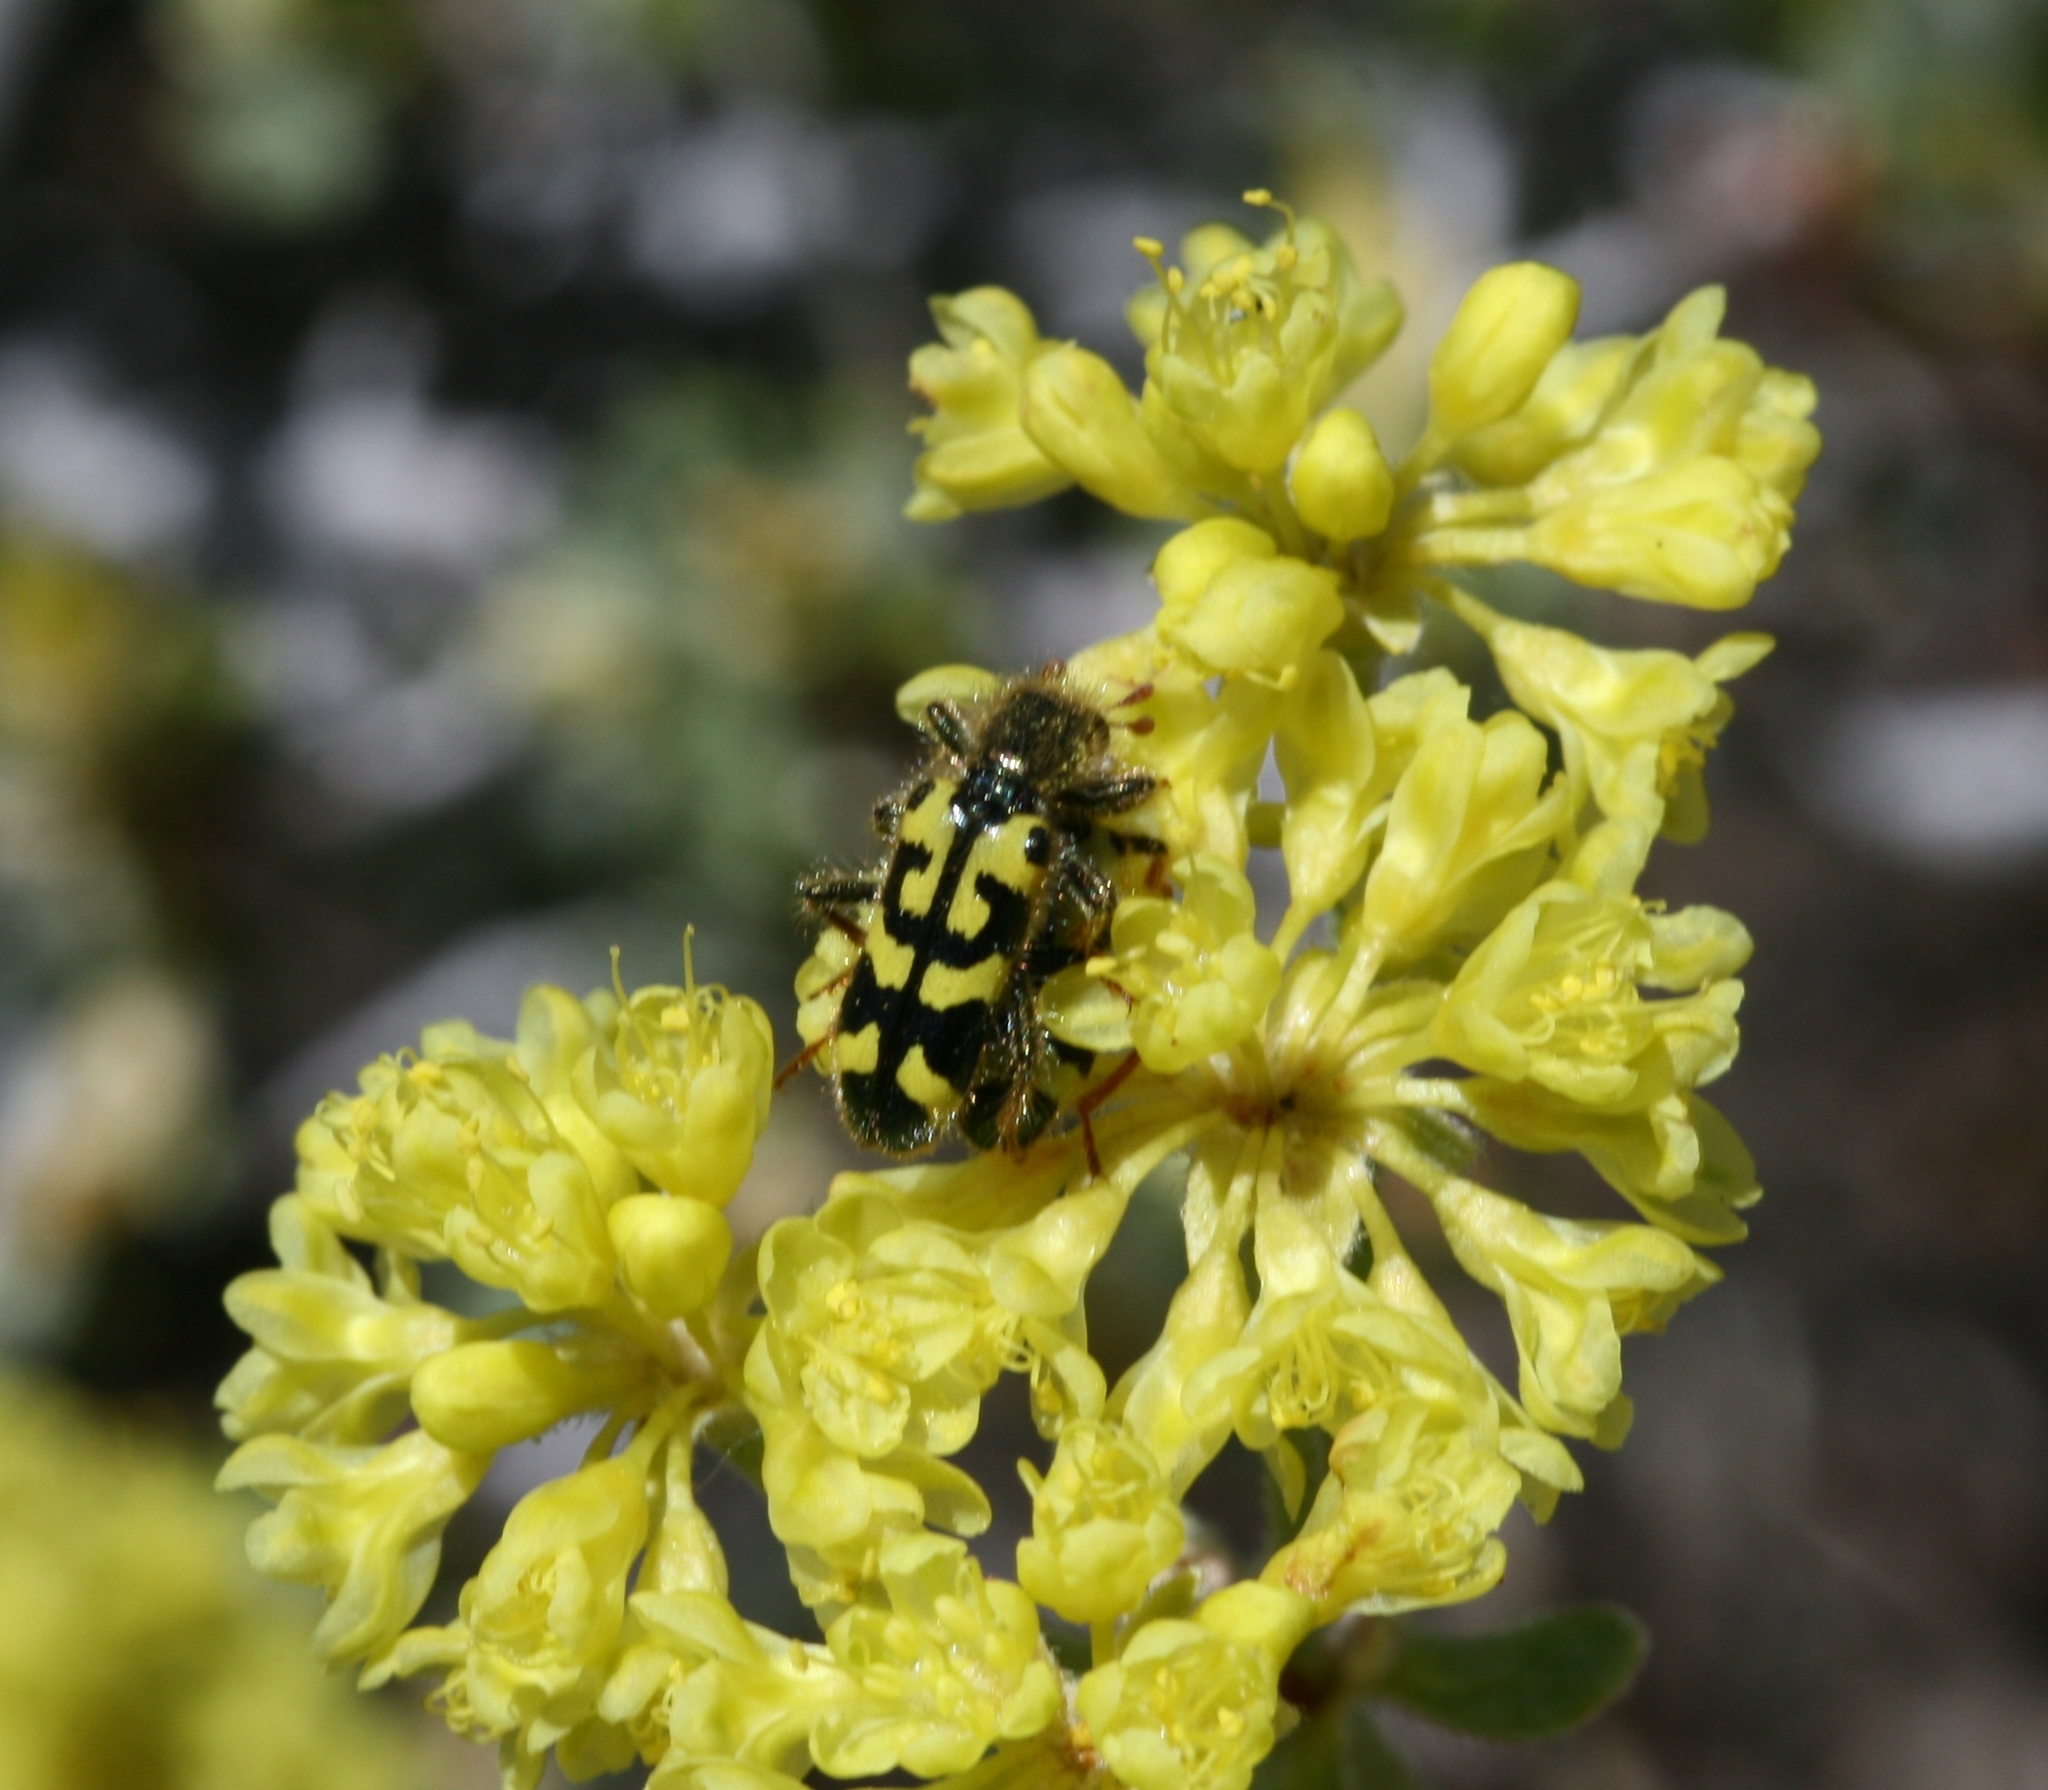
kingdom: Plantae
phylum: Tracheophyta
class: Magnoliopsida
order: Caryophyllales
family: Polygonaceae
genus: Eriogonum
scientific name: Eriogonum umbellatum
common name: Sulfur-buckwheat
